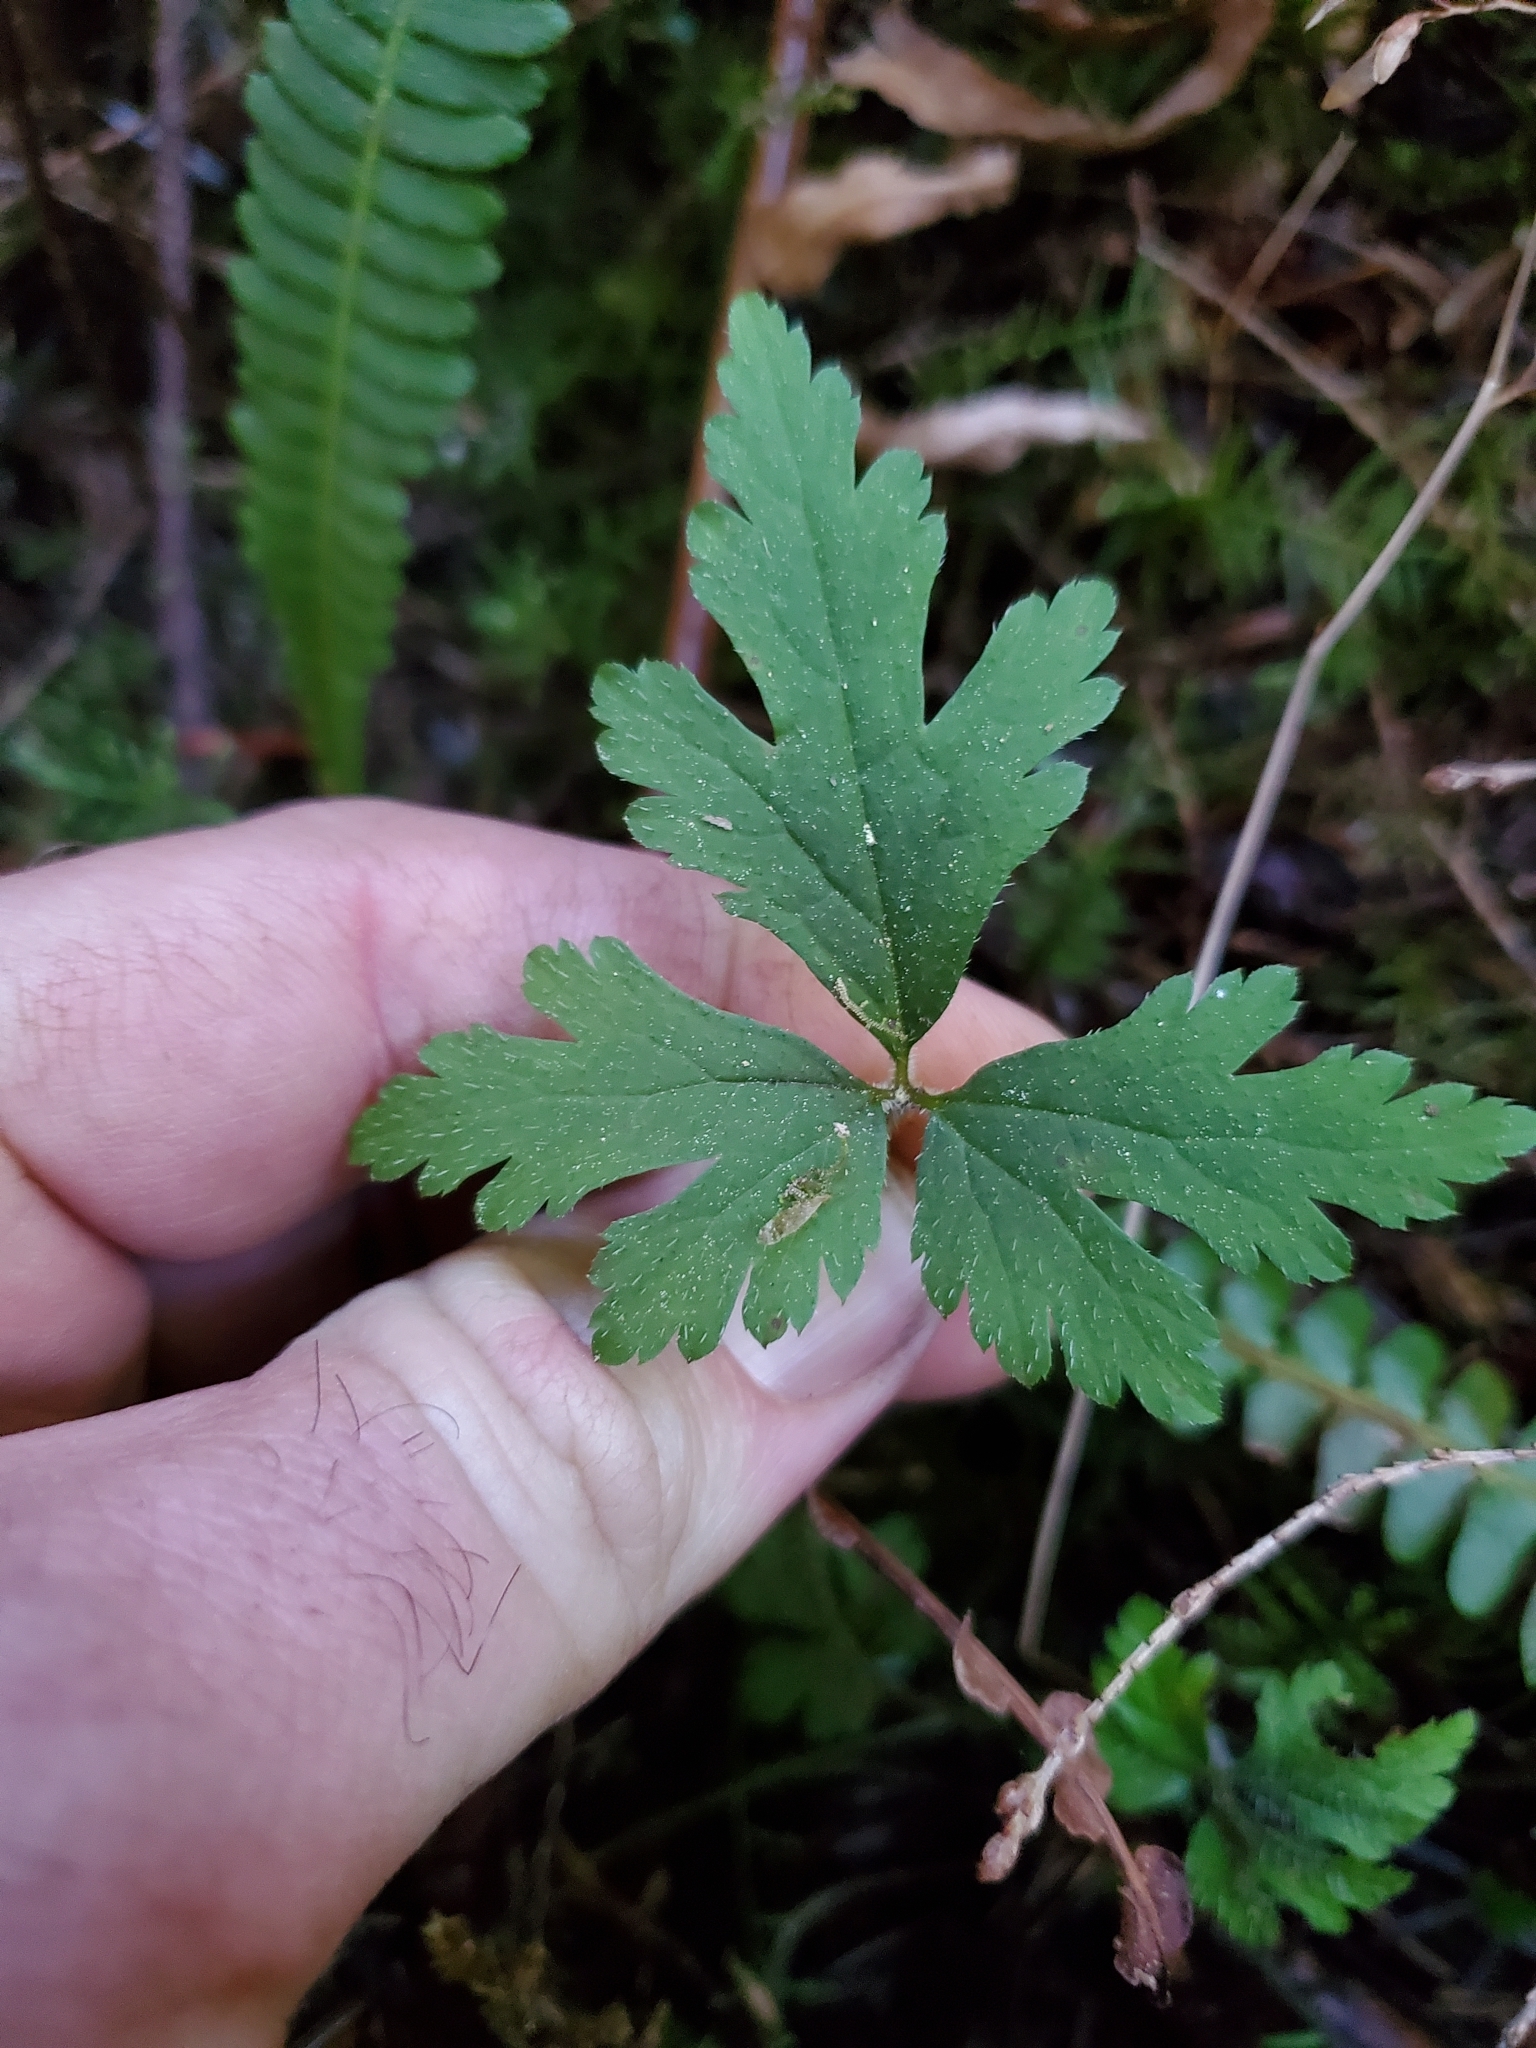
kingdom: Plantae
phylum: Tracheophyta
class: Magnoliopsida
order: Saxifragales
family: Saxifragaceae
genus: Tiarella
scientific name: Tiarella trifoliata
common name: Sugar-scoop
